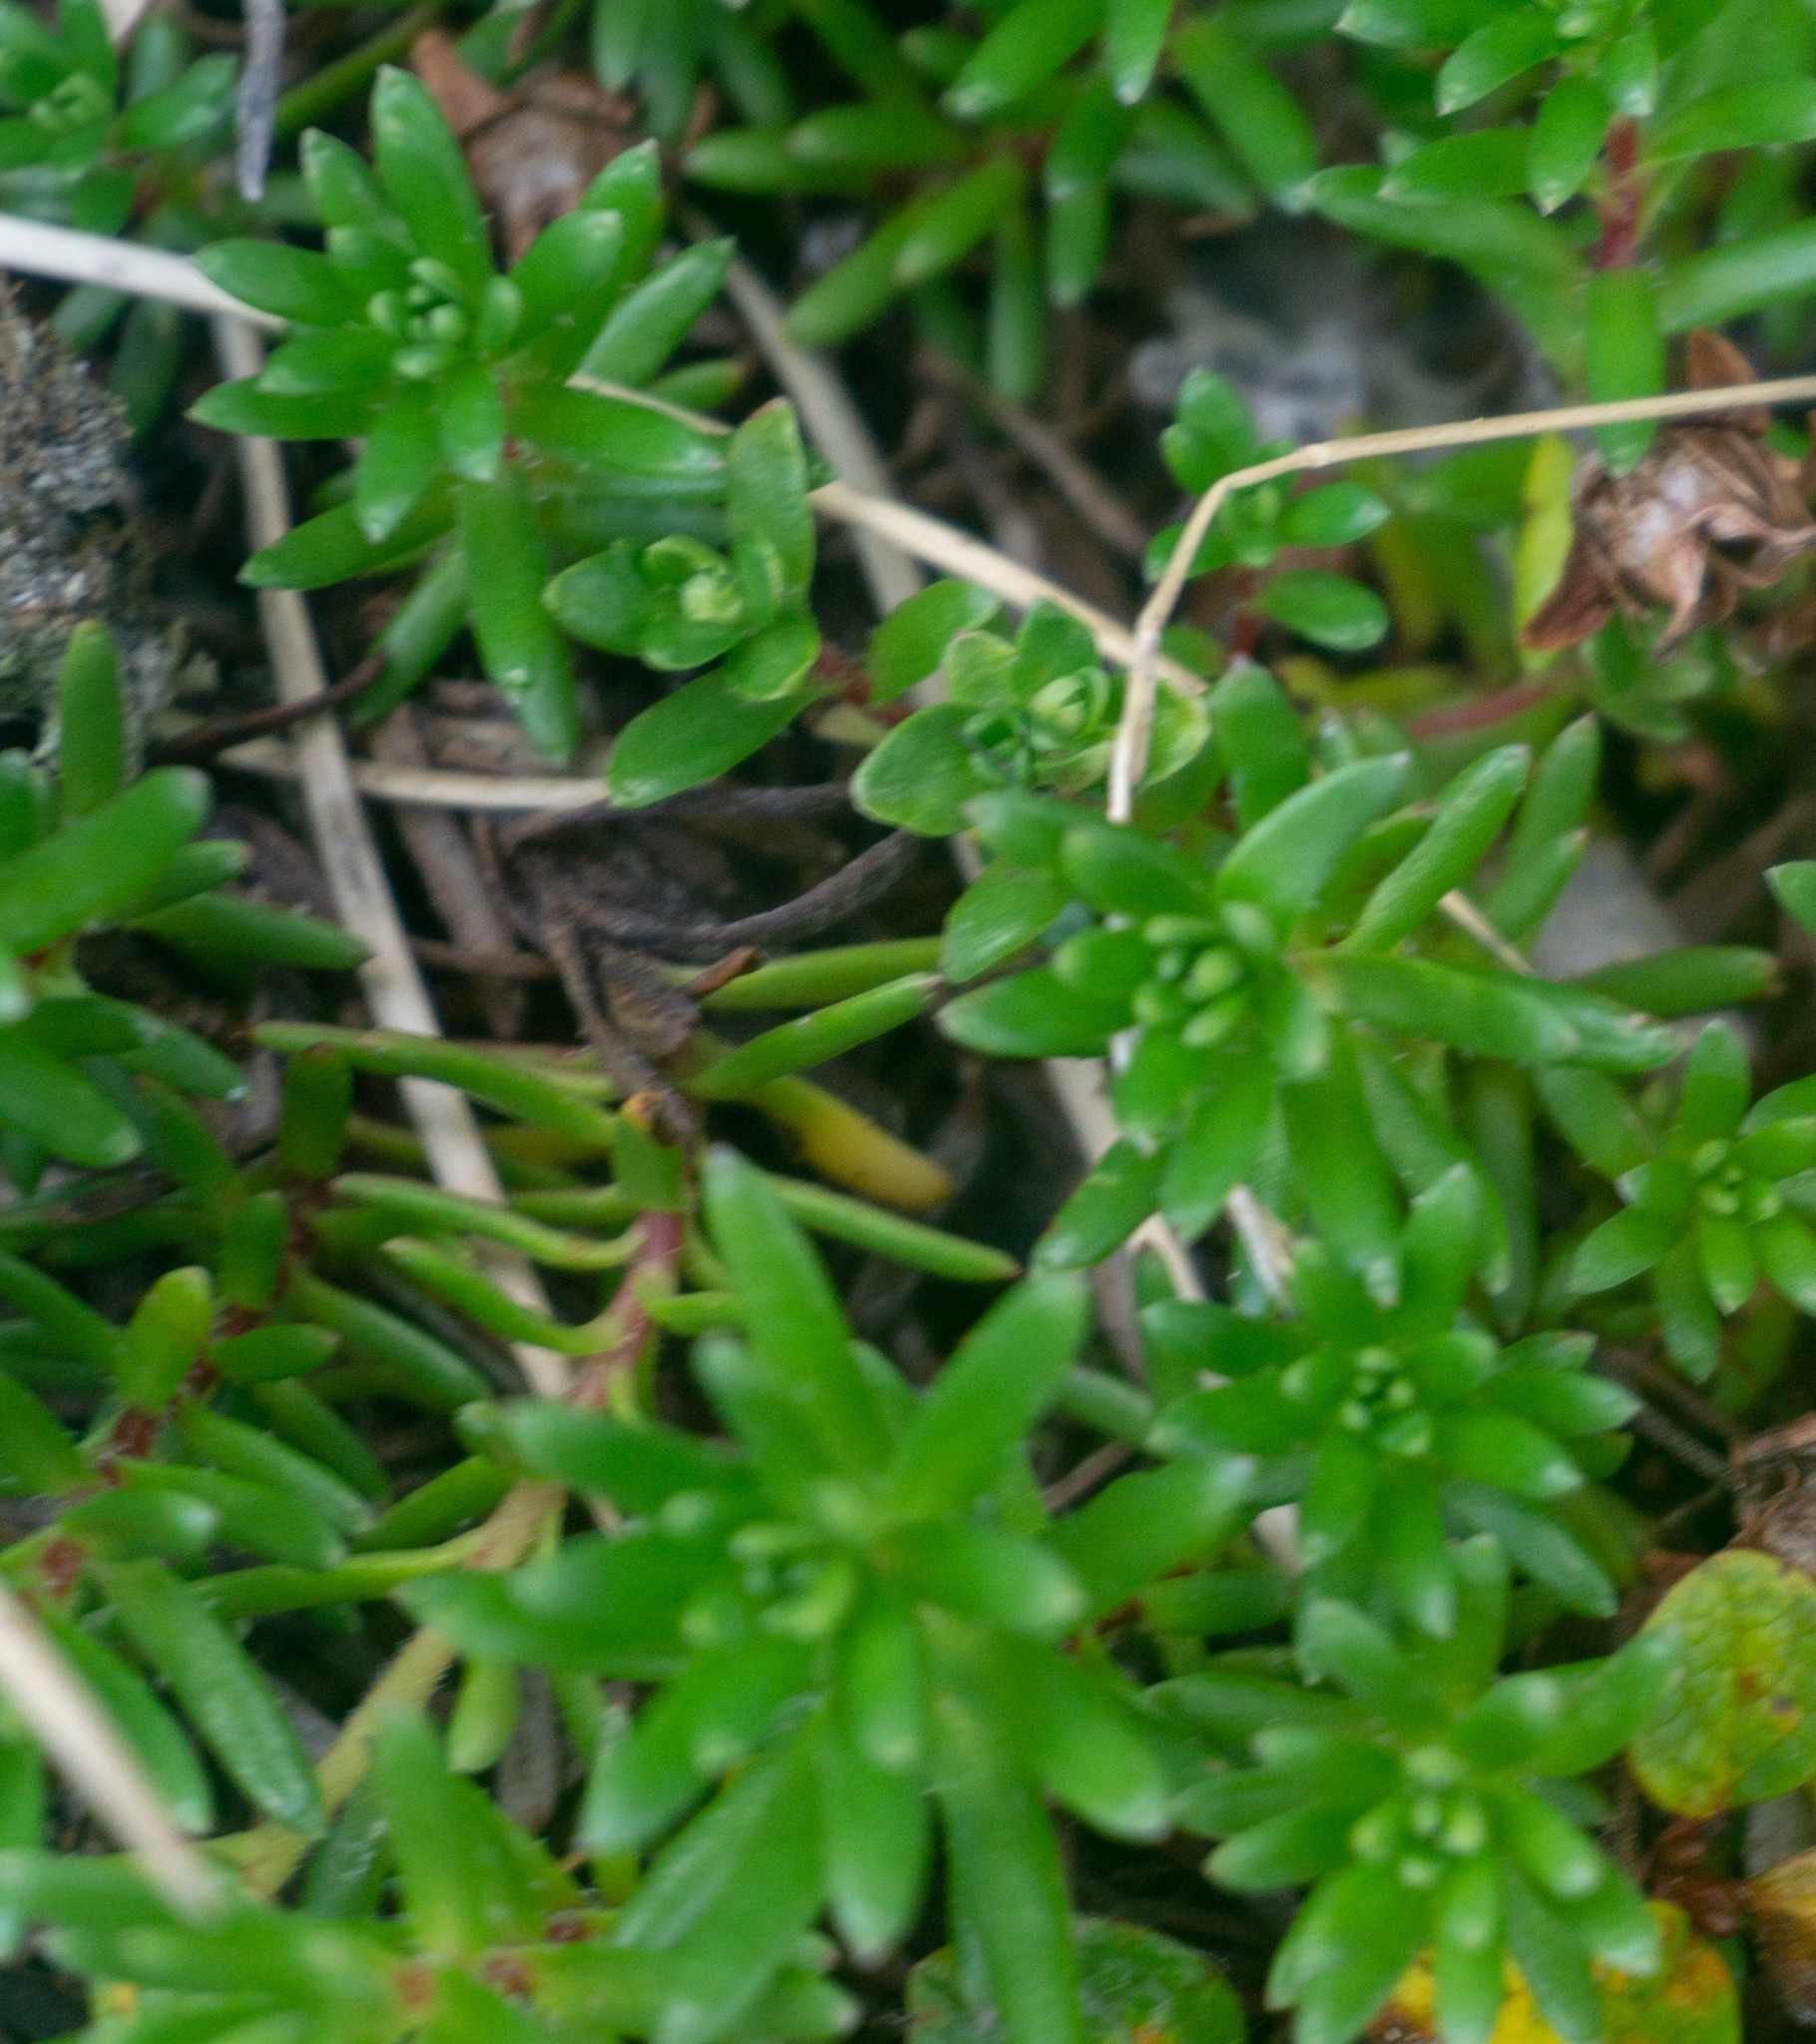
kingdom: Plantae
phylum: Tracheophyta
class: Magnoliopsida
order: Saxifragales
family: Saxifragaceae
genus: Saxifraga
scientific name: Saxifraga aizoides
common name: Yellow mountain saxifrage
